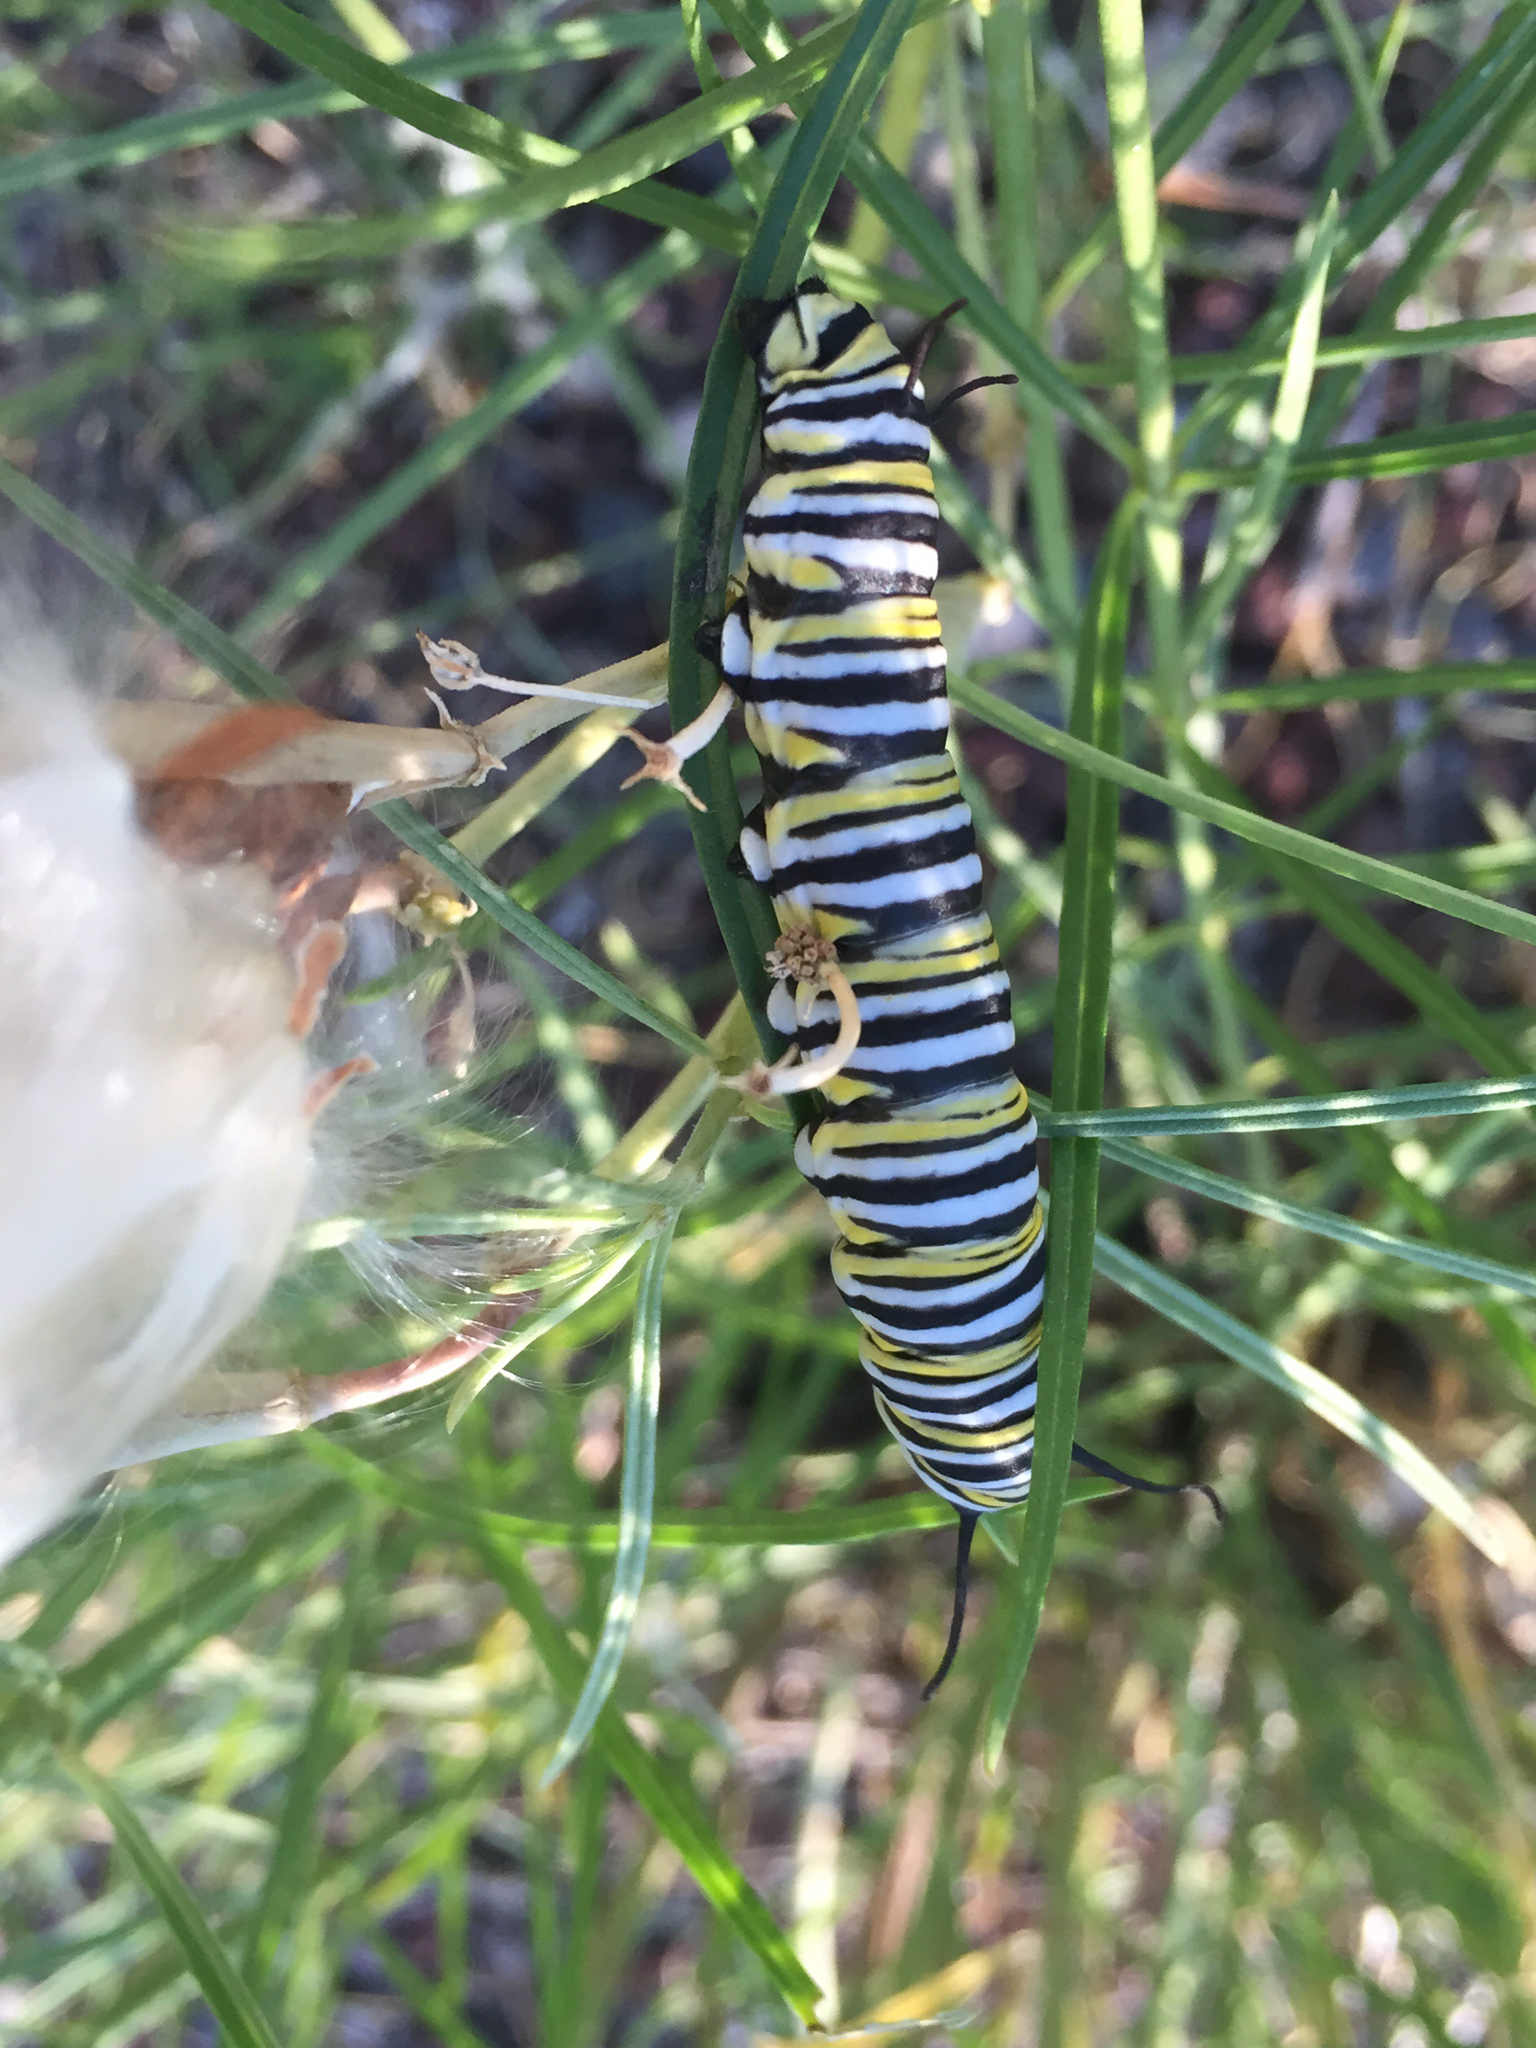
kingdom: Animalia
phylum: Arthropoda
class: Insecta
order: Lepidoptera
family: Nymphalidae
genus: Danaus
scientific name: Danaus plexippus
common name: Monarch
